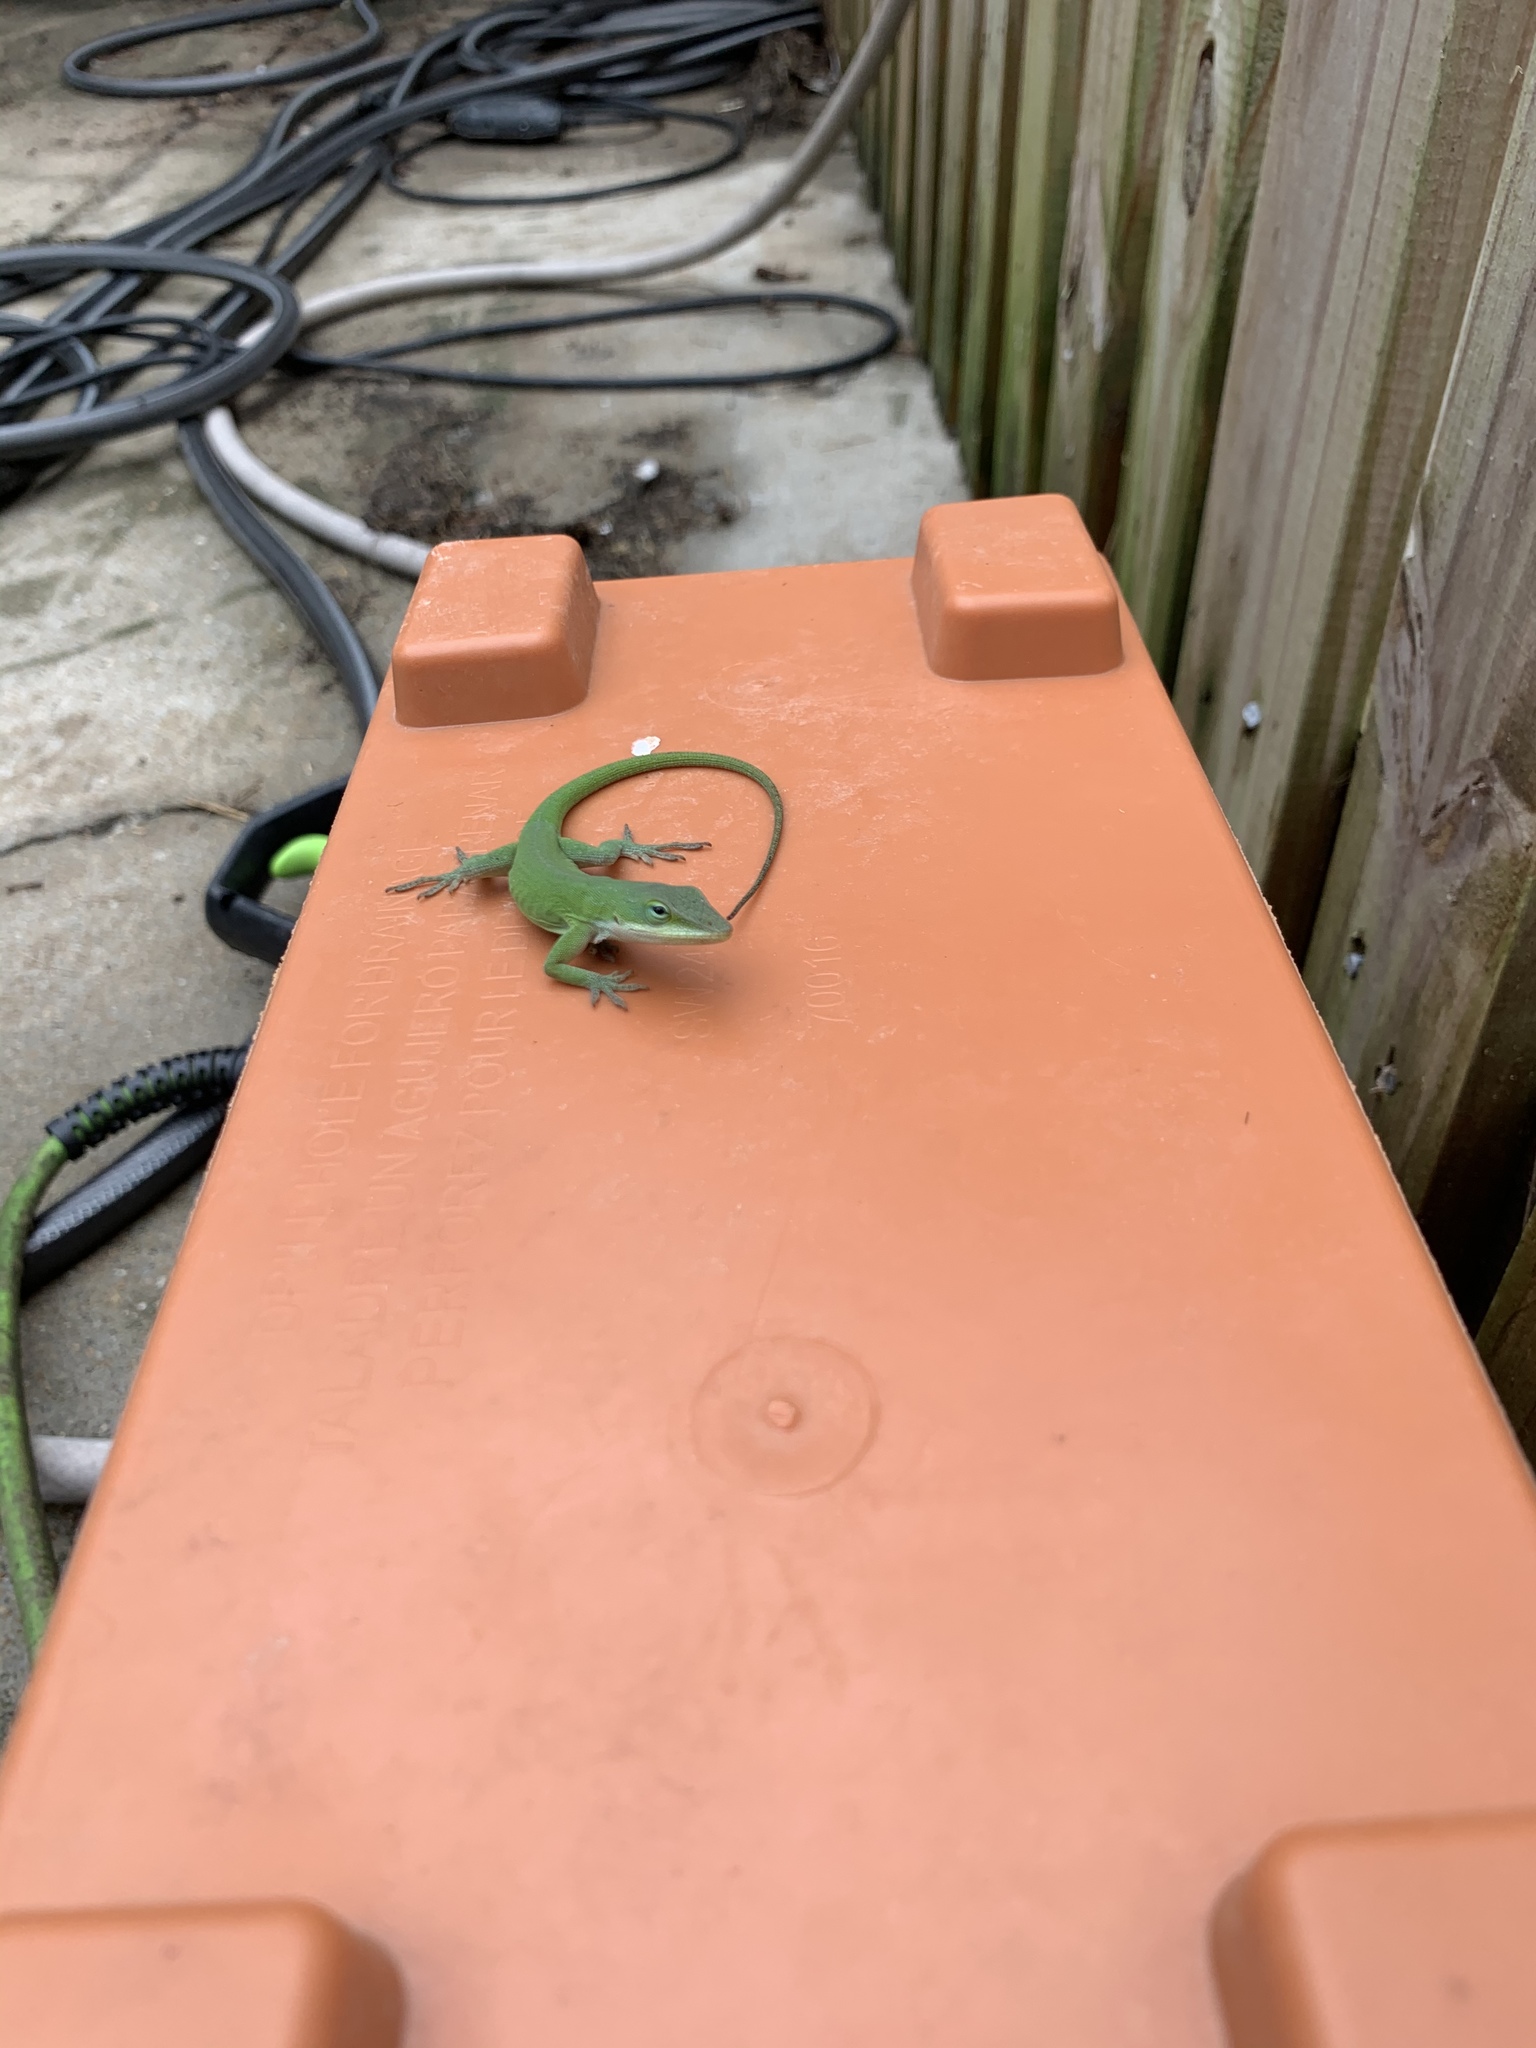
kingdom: Animalia
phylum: Chordata
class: Squamata
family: Dactyloidae
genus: Anolis
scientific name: Anolis carolinensis
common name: Green anole
